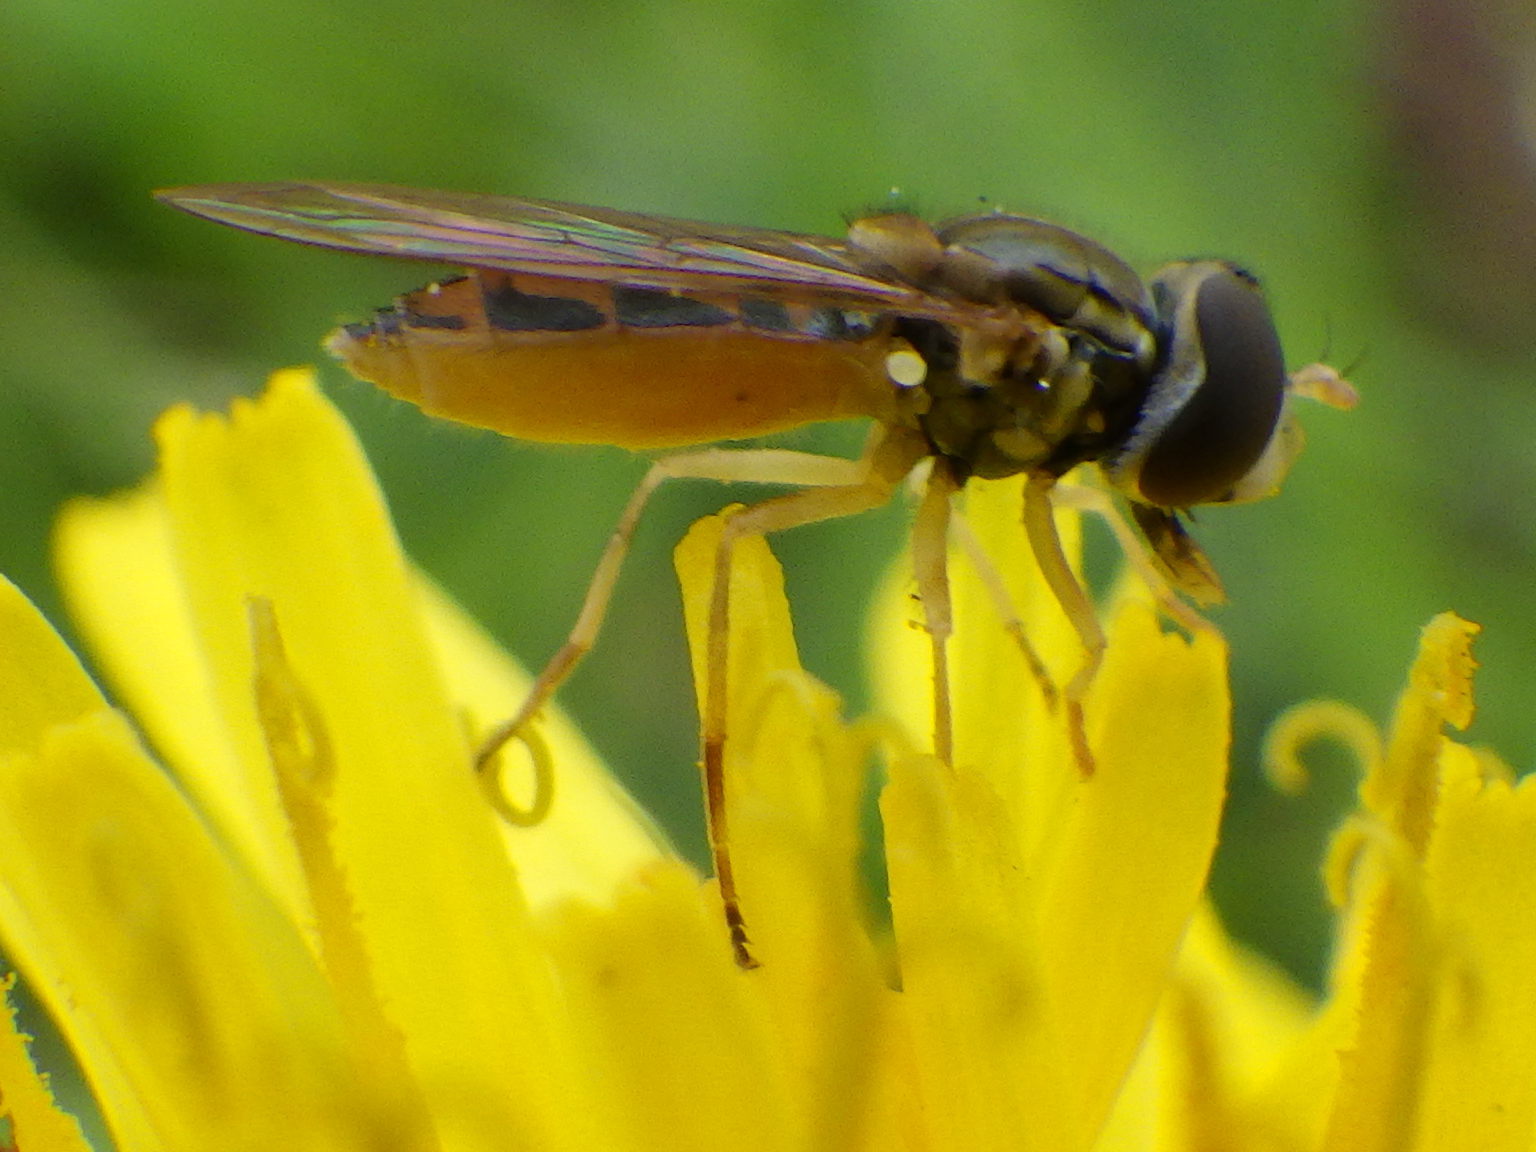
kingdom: Animalia
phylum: Arthropoda
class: Insecta
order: Diptera
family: Syrphidae
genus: Toxomerus
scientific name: Toxomerus marginatus
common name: Syrphid fly
